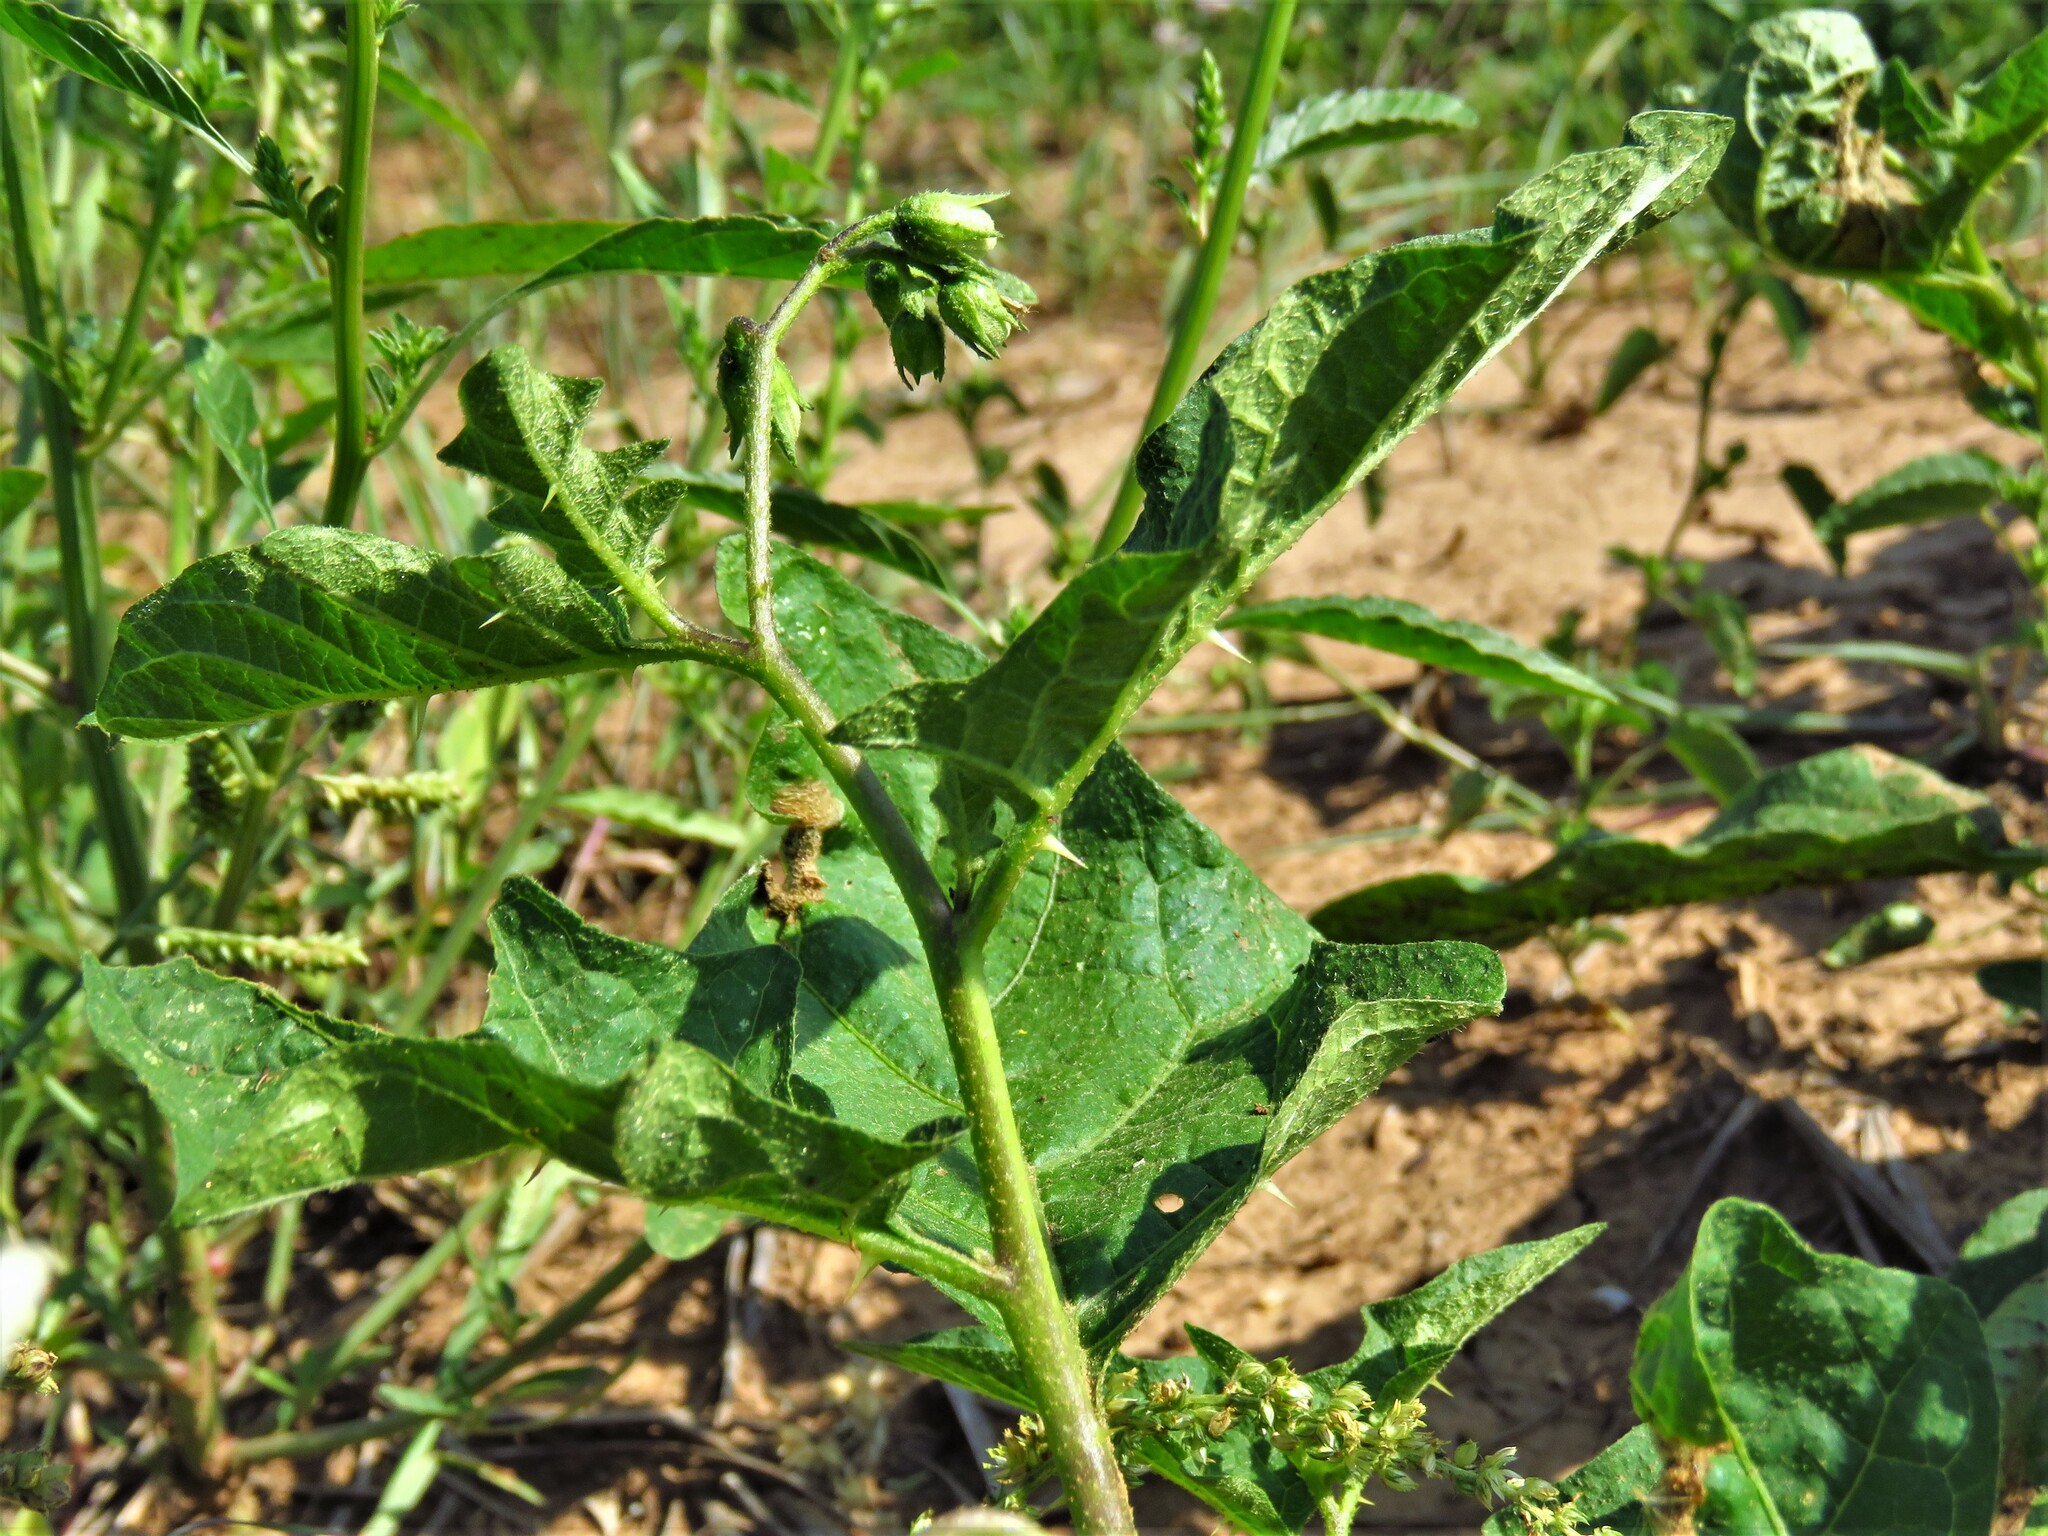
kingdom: Plantae
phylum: Tracheophyta
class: Magnoliopsida
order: Solanales
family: Solanaceae
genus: Solanum
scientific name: Solanum carolinense
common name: Horse-nettle
